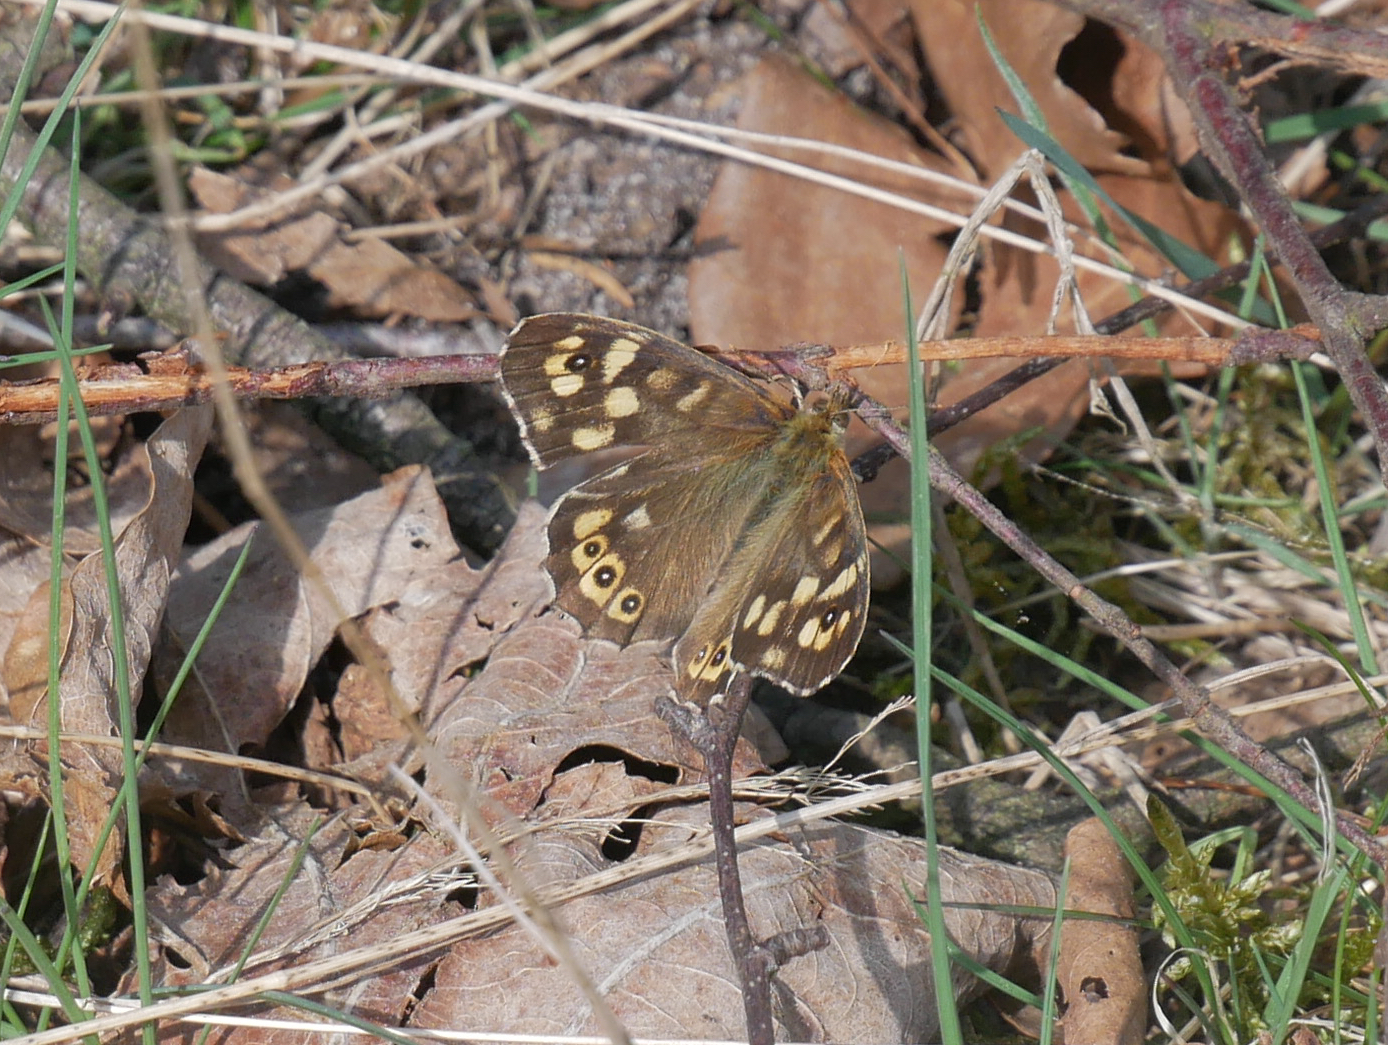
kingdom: Animalia
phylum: Arthropoda
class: Insecta
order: Lepidoptera
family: Nymphalidae
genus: Pararge
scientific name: Pararge aegeria
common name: Speckled wood
